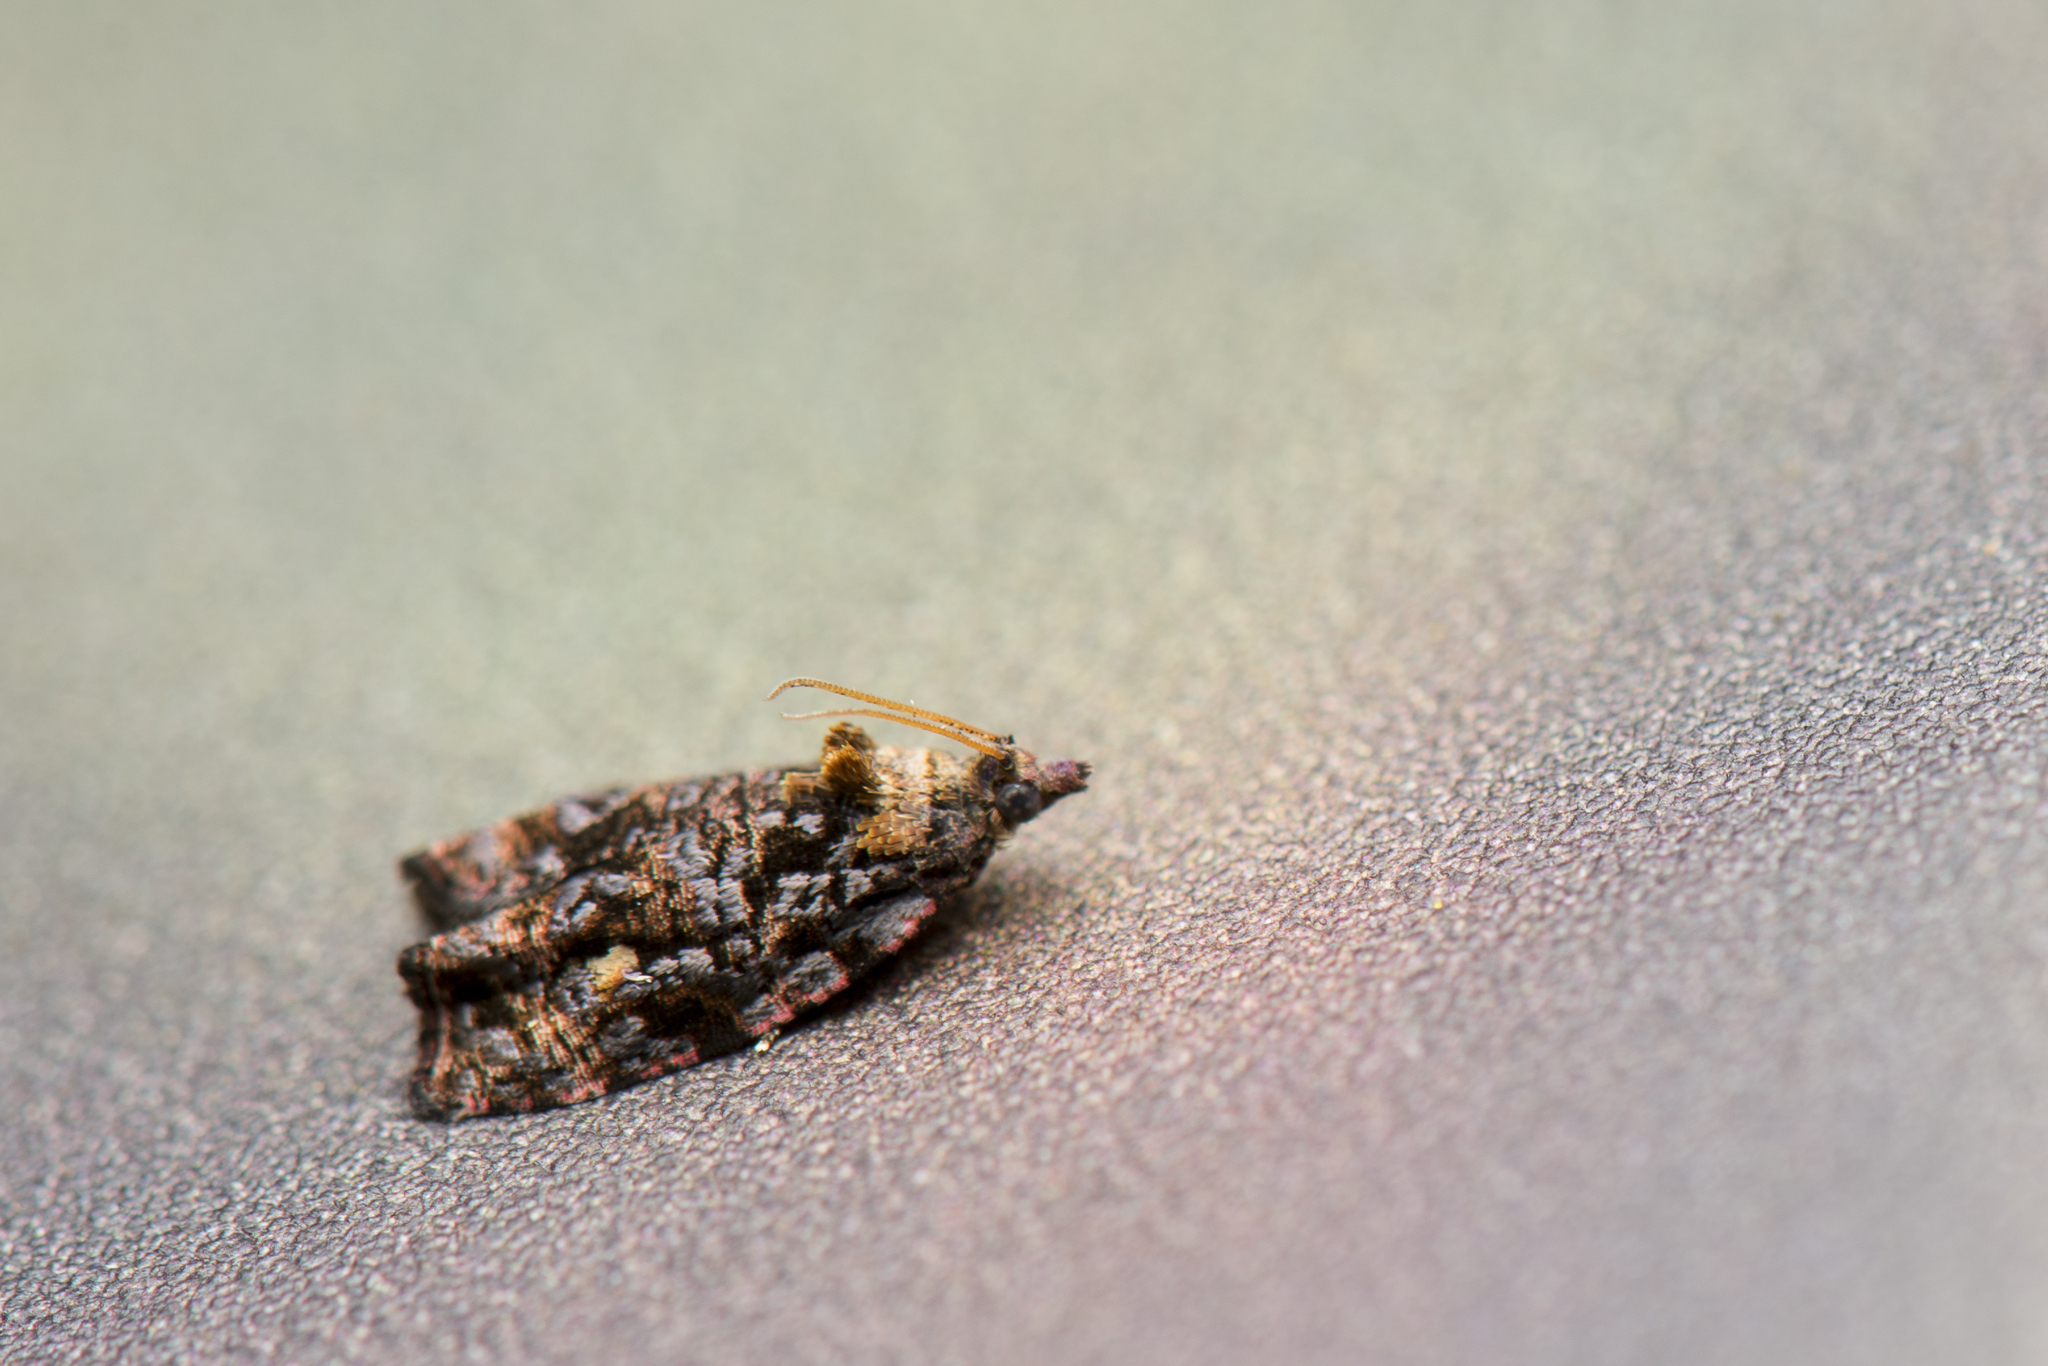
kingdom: Animalia
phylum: Arthropoda
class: Insecta
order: Lepidoptera
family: Tortricidae
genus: Gatesclarkeana
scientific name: Gatesclarkeana idia
